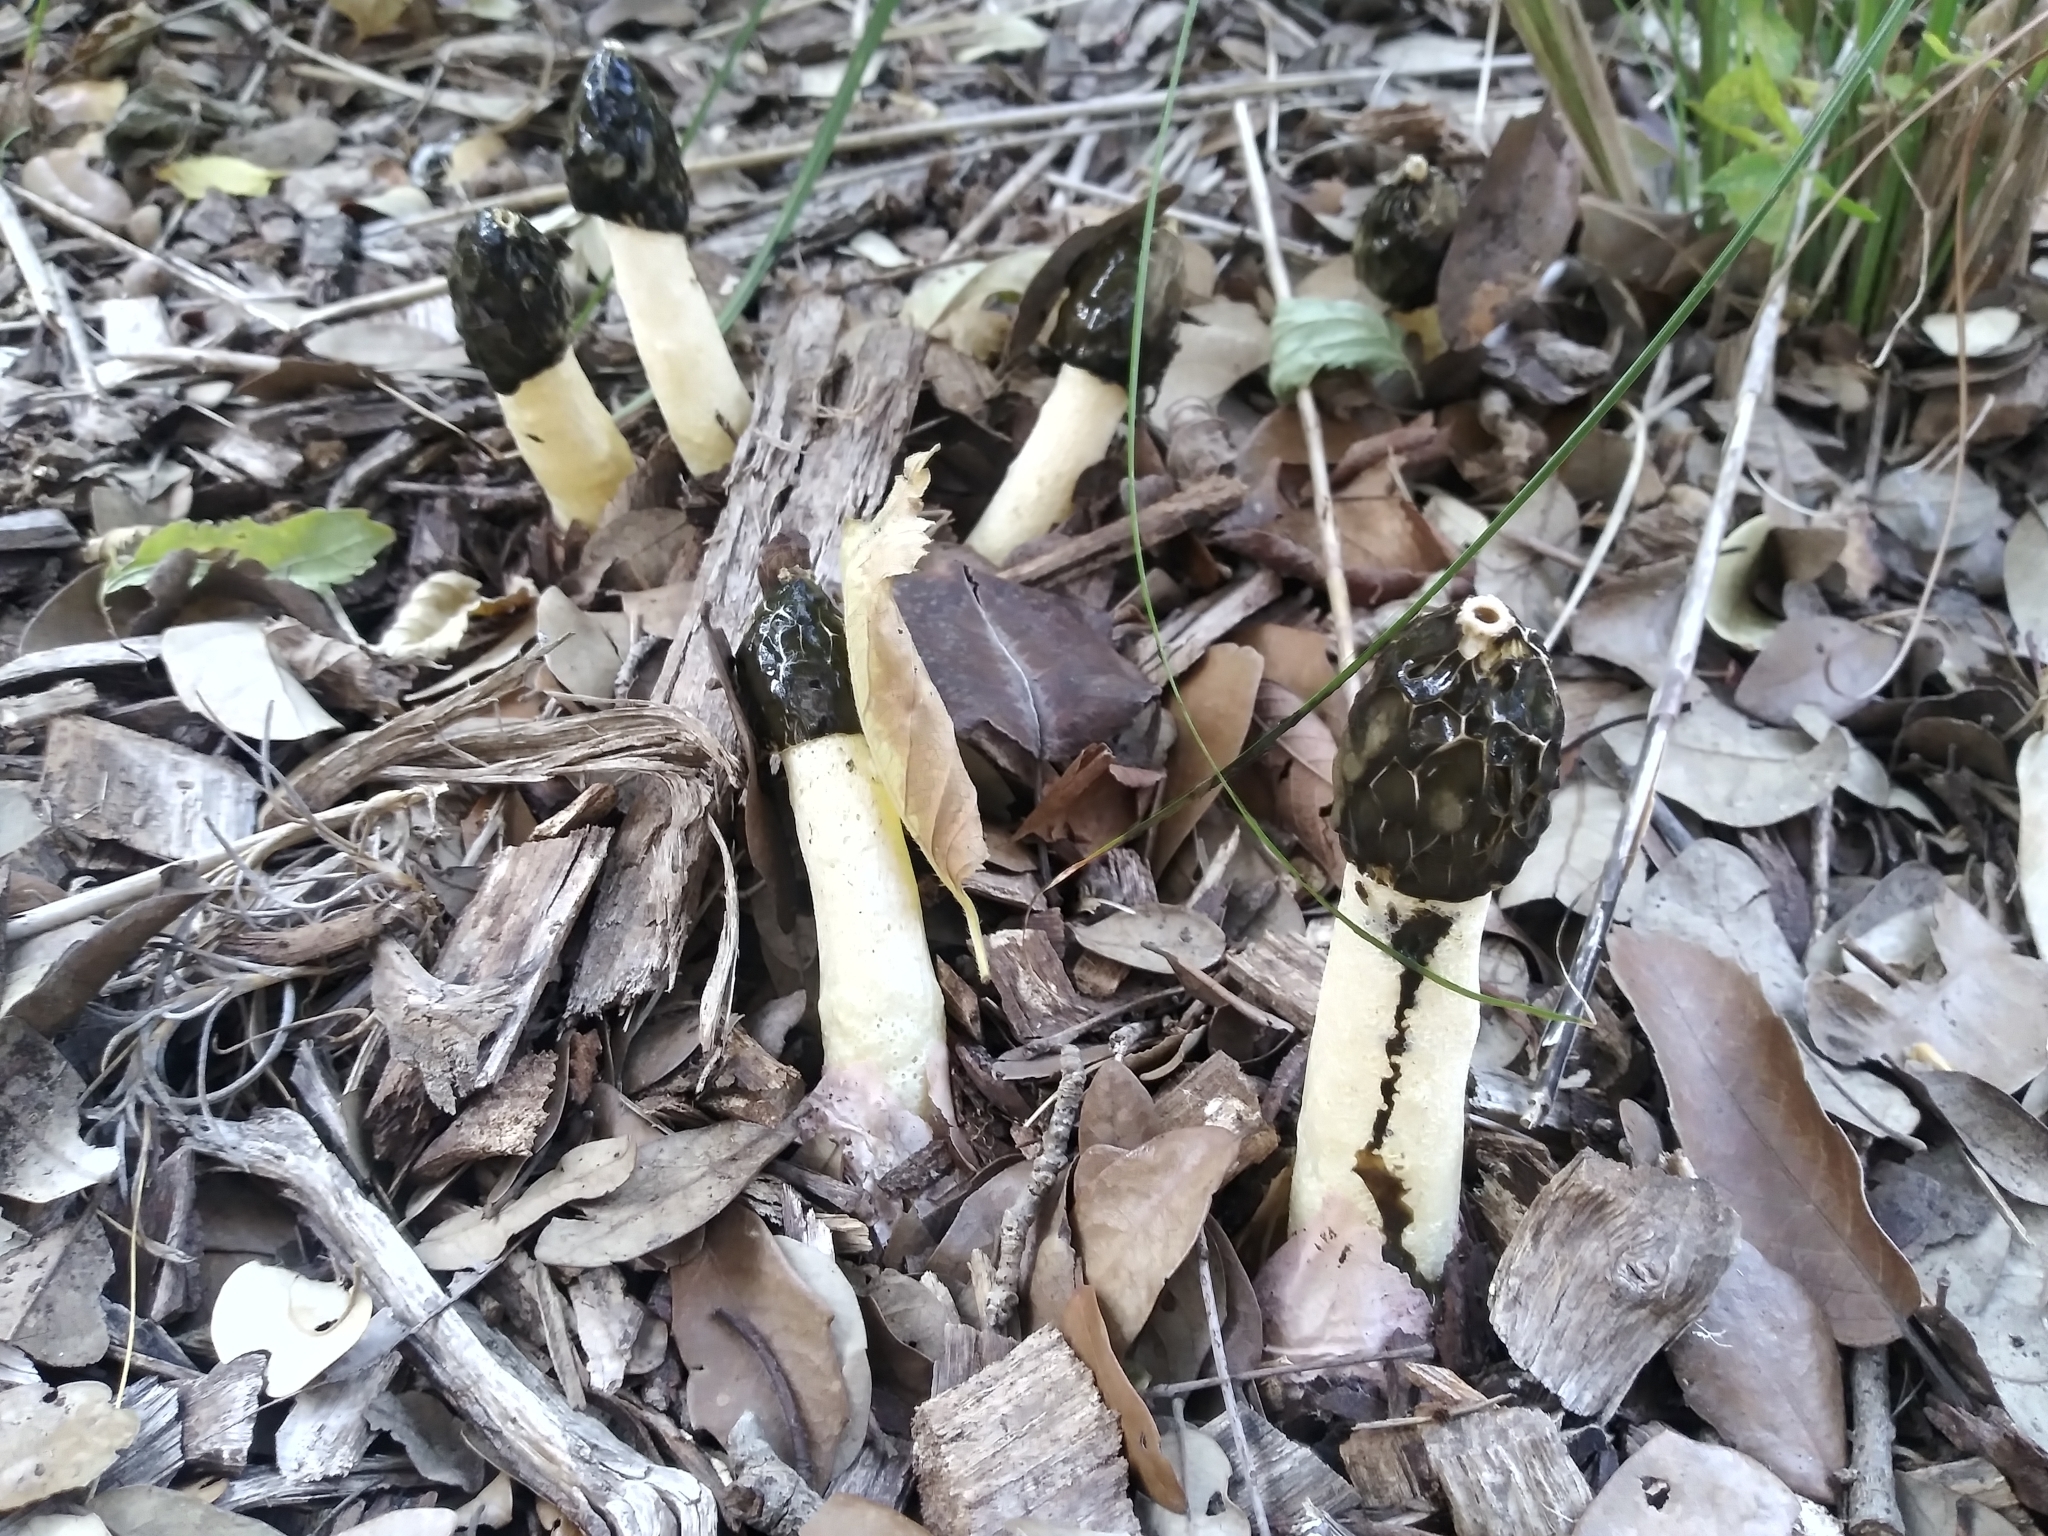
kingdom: Fungi
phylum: Basidiomycota
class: Agaricomycetes
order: Phallales
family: Phallaceae
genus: Phallus
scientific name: Phallus hadriani
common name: Sand stinkhorn
